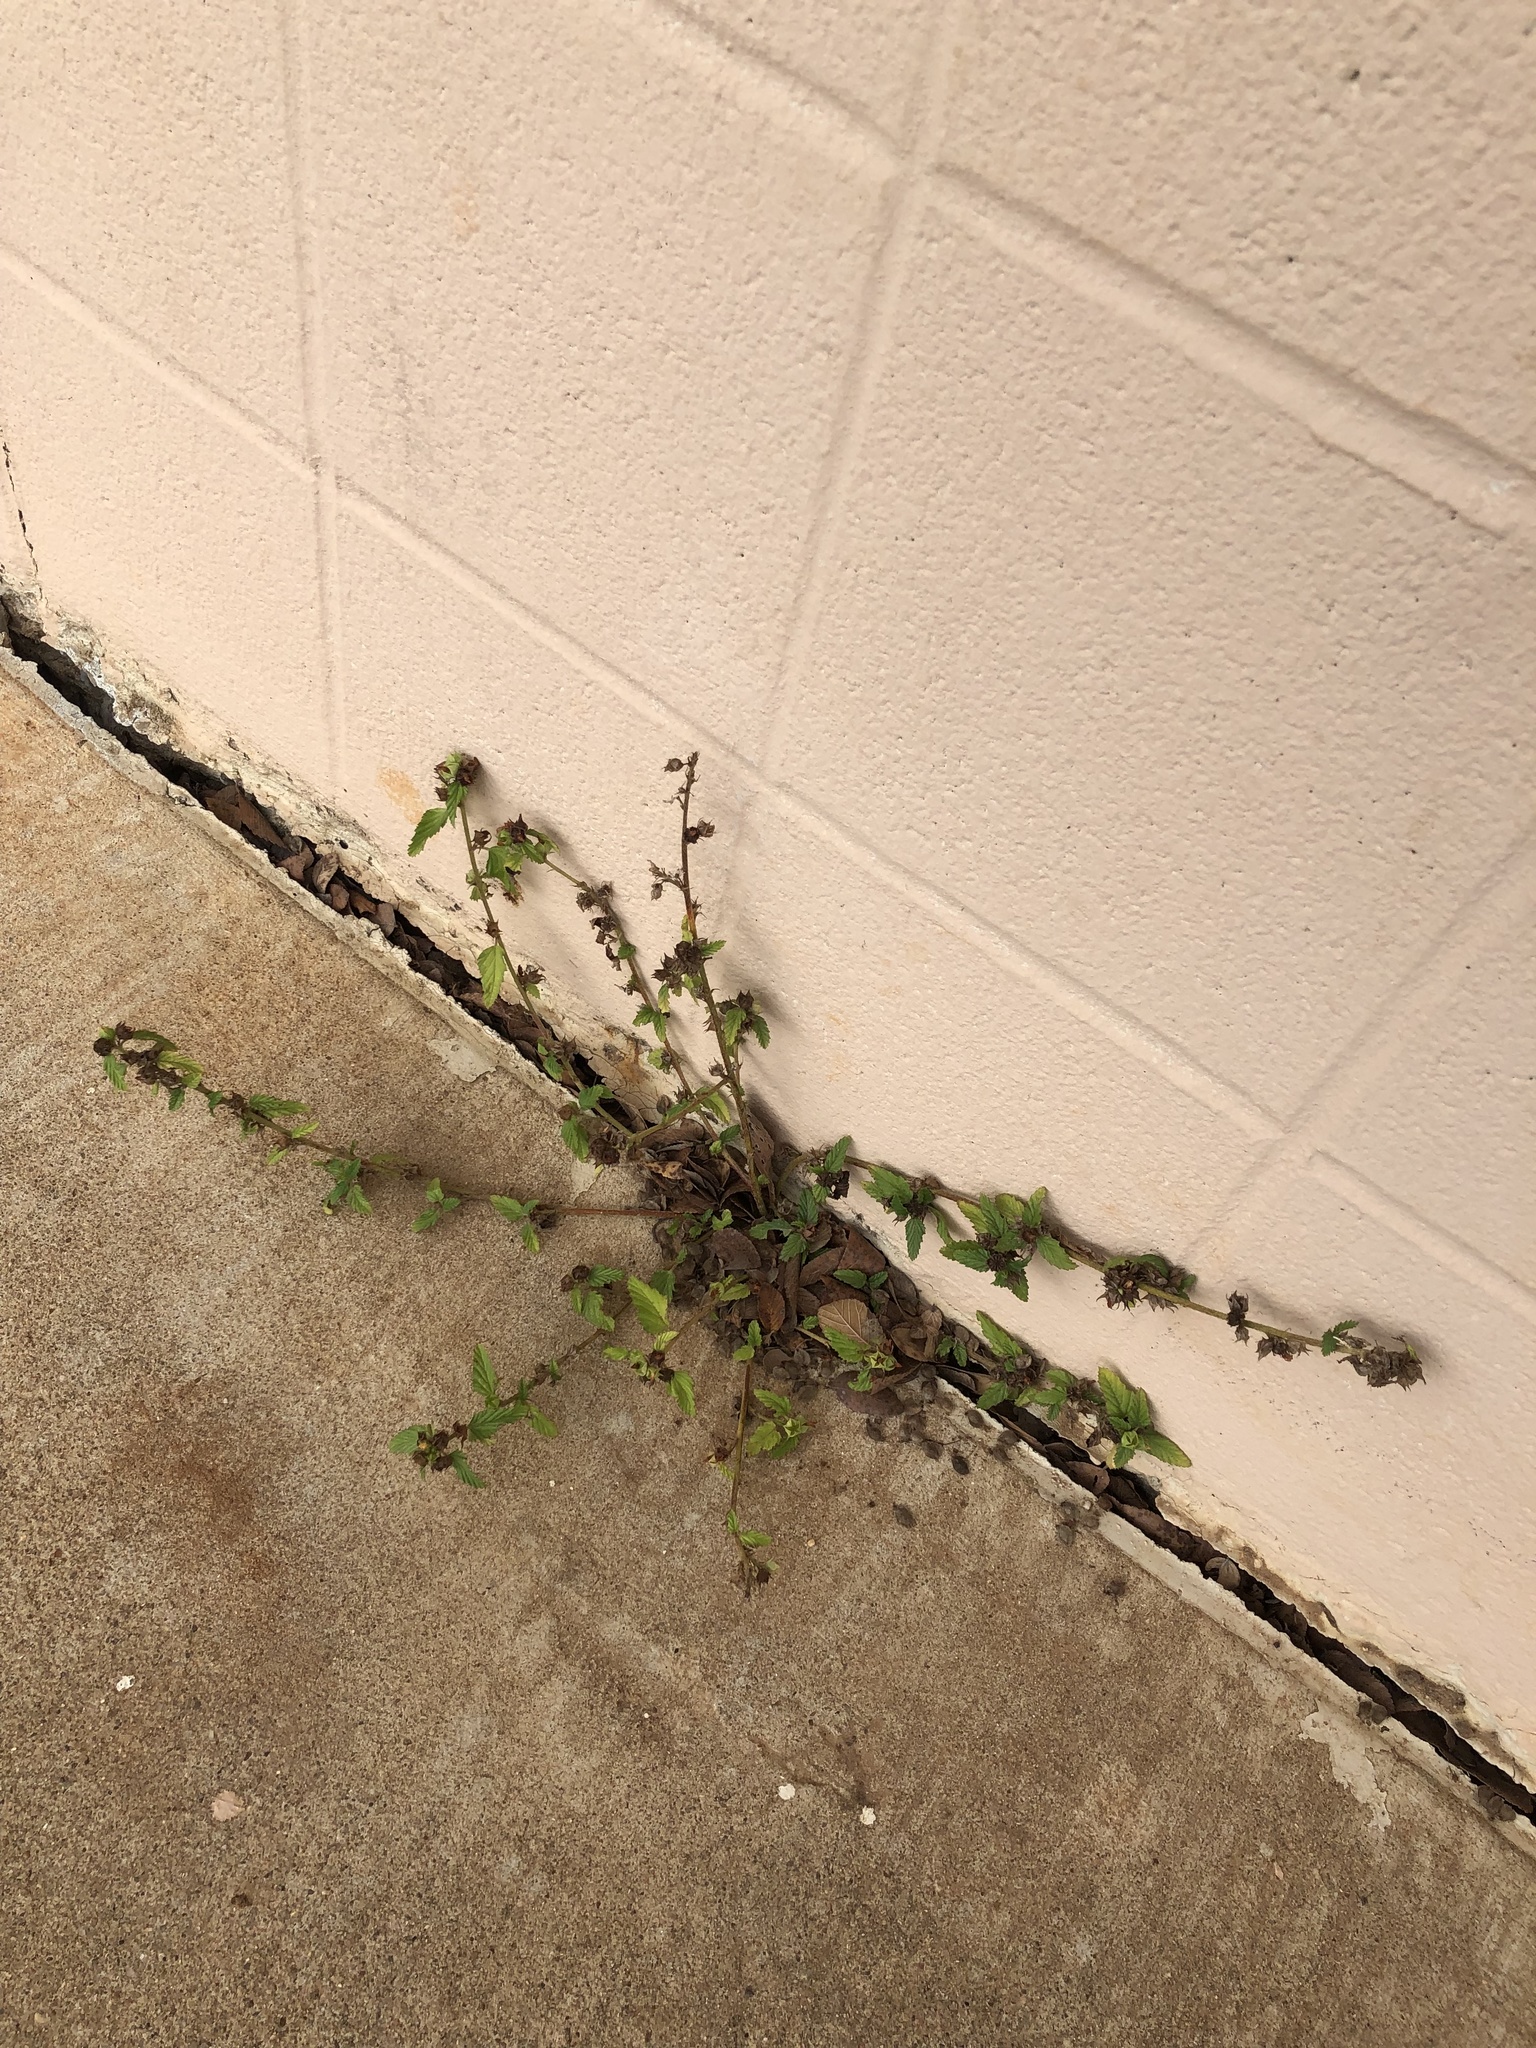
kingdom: Plantae
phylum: Tracheophyta
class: Magnoliopsida
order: Malvales
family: Malvaceae
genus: Malvastrum
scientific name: Malvastrum coromandelianum
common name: Threelobe false mallow
